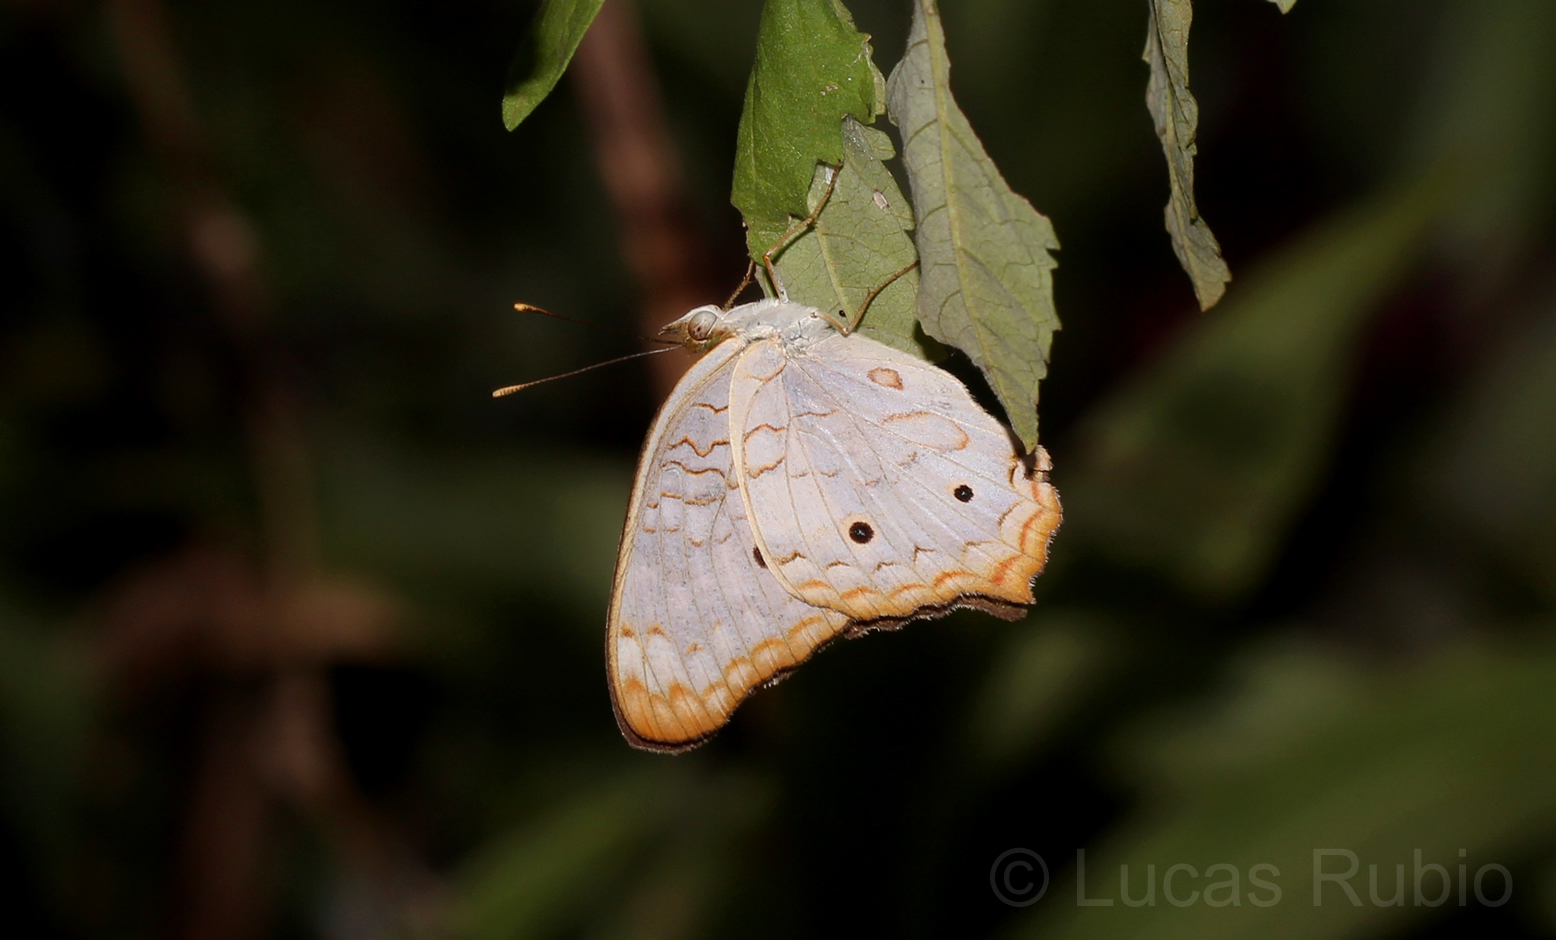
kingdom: Animalia
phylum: Arthropoda
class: Insecta
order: Lepidoptera
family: Nymphalidae
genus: Anartia
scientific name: Anartia jatrophae
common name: White peacock
